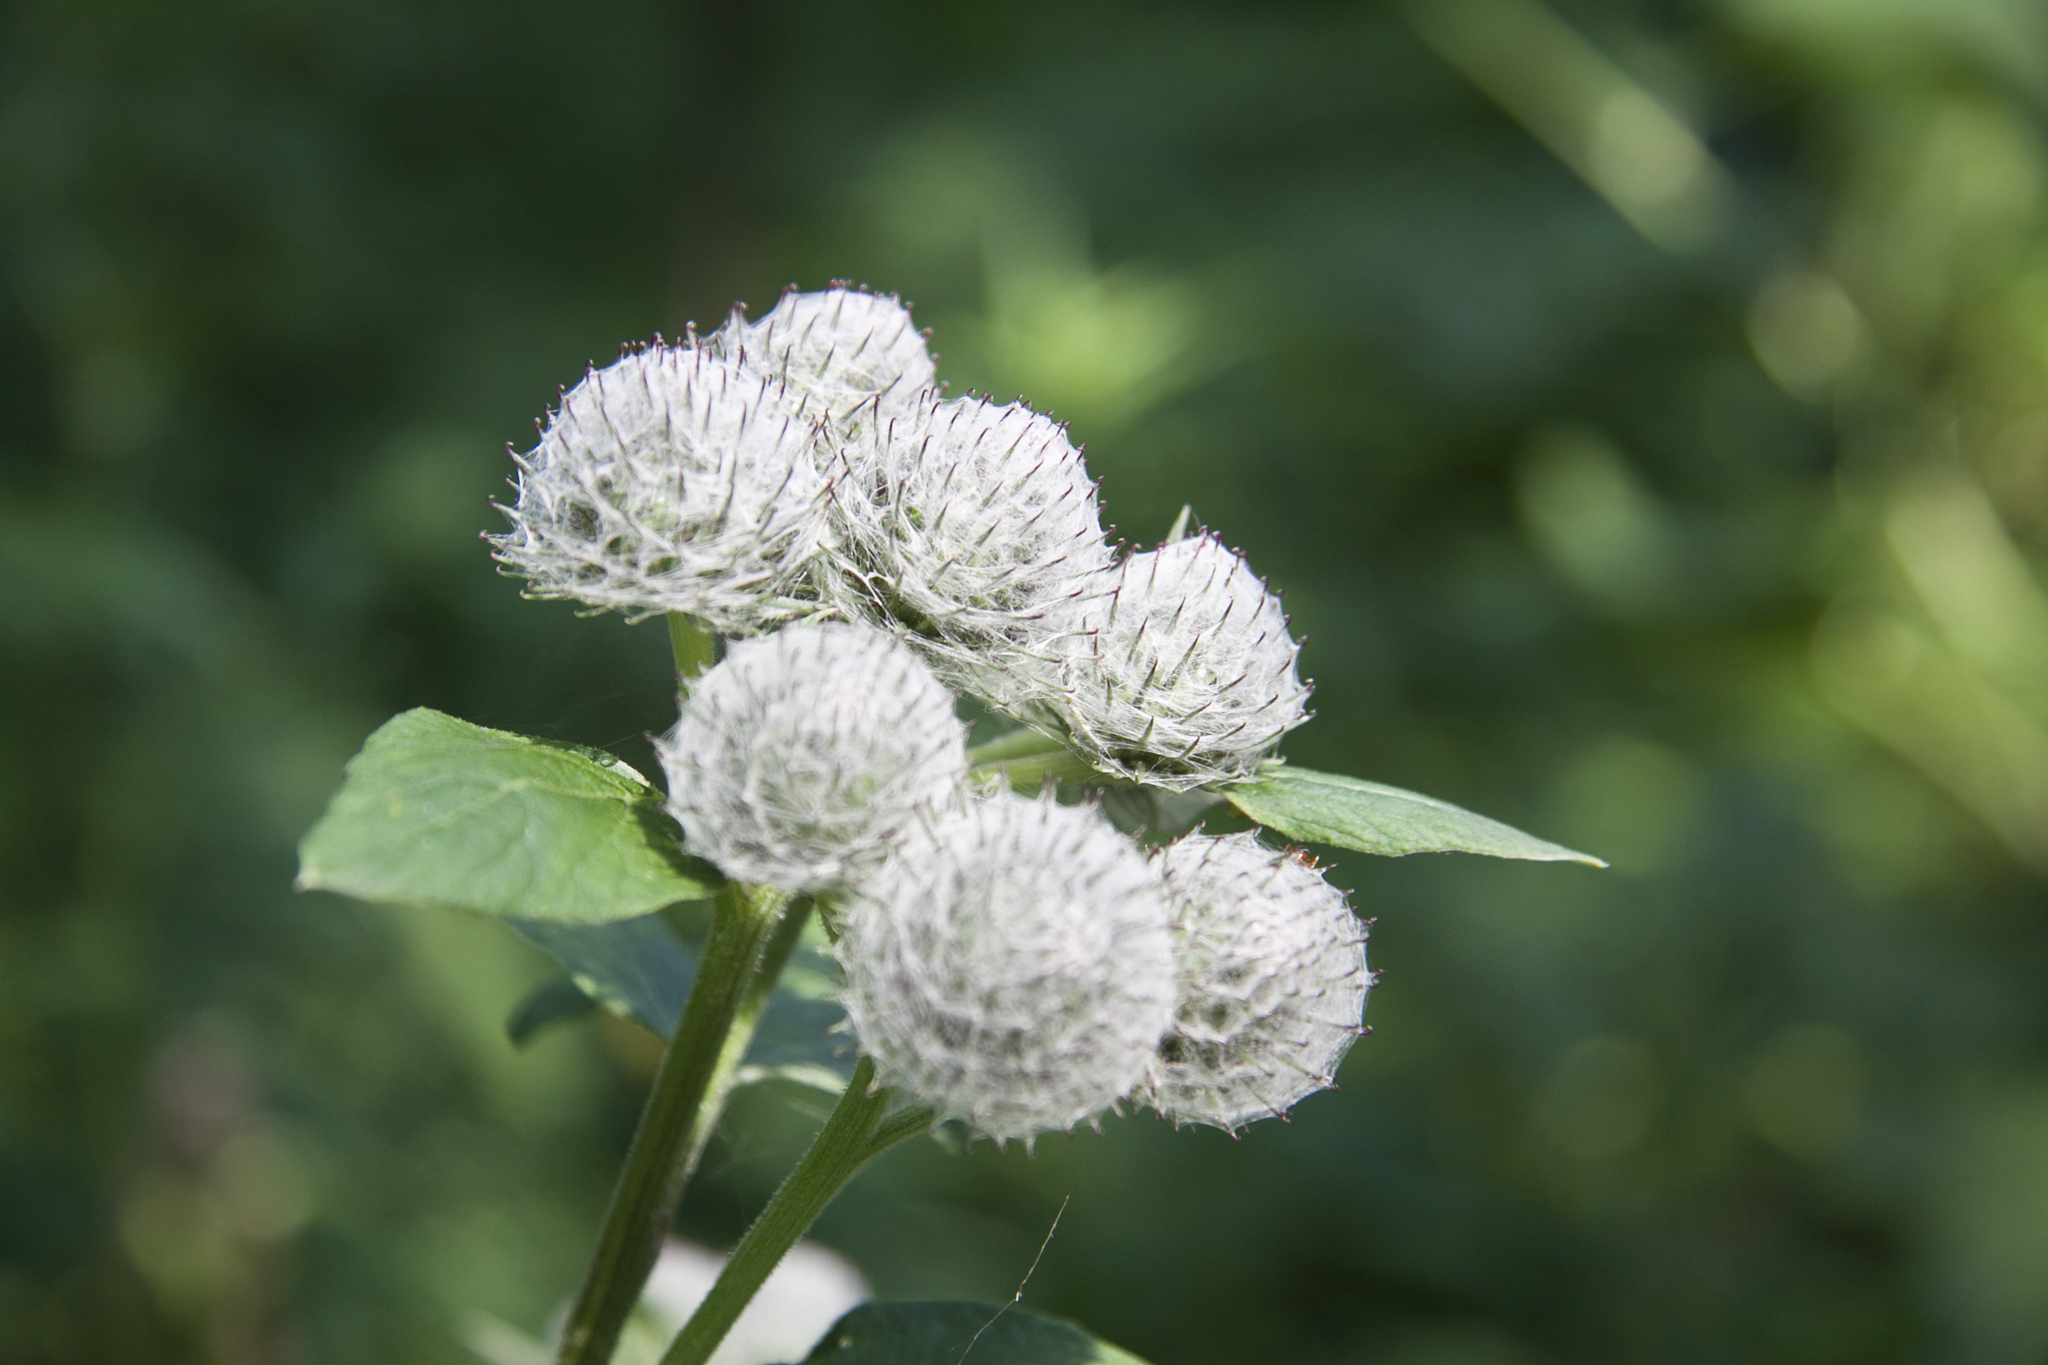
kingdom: Plantae
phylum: Tracheophyta
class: Magnoliopsida
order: Asterales
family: Asteraceae
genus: Arctium
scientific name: Arctium tomentosum
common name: Woolly burdock
